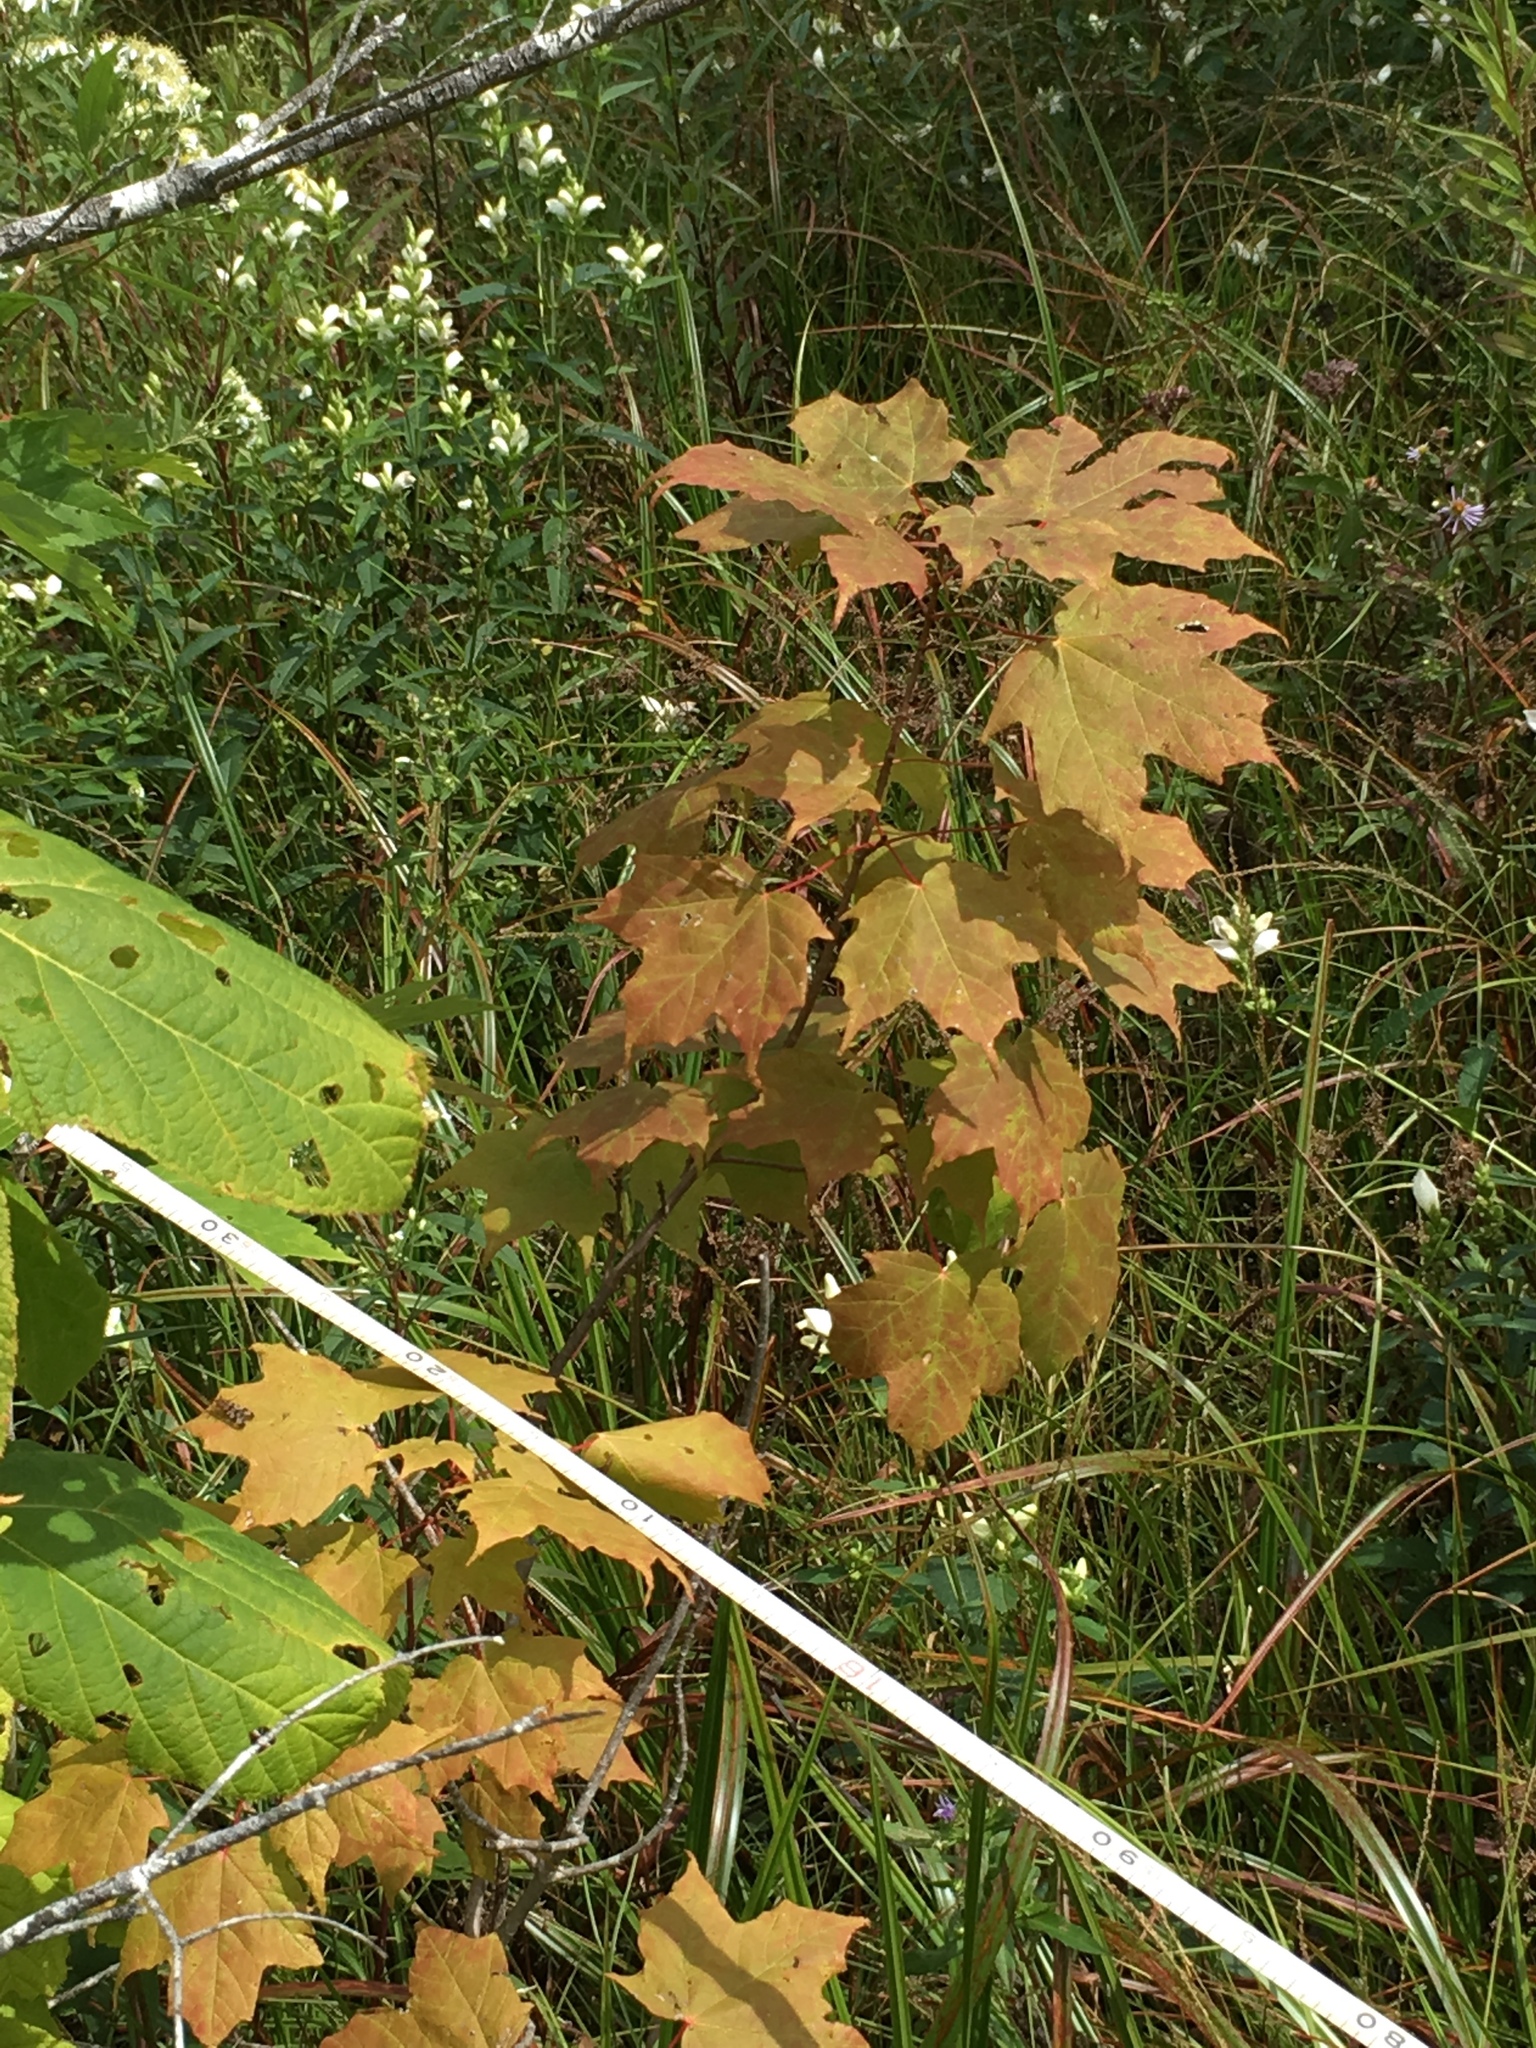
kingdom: Plantae
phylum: Tracheophyta
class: Magnoliopsida
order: Sapindales
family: Sapindaceae
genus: Acer
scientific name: Acer saccharum
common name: Sugar maple
